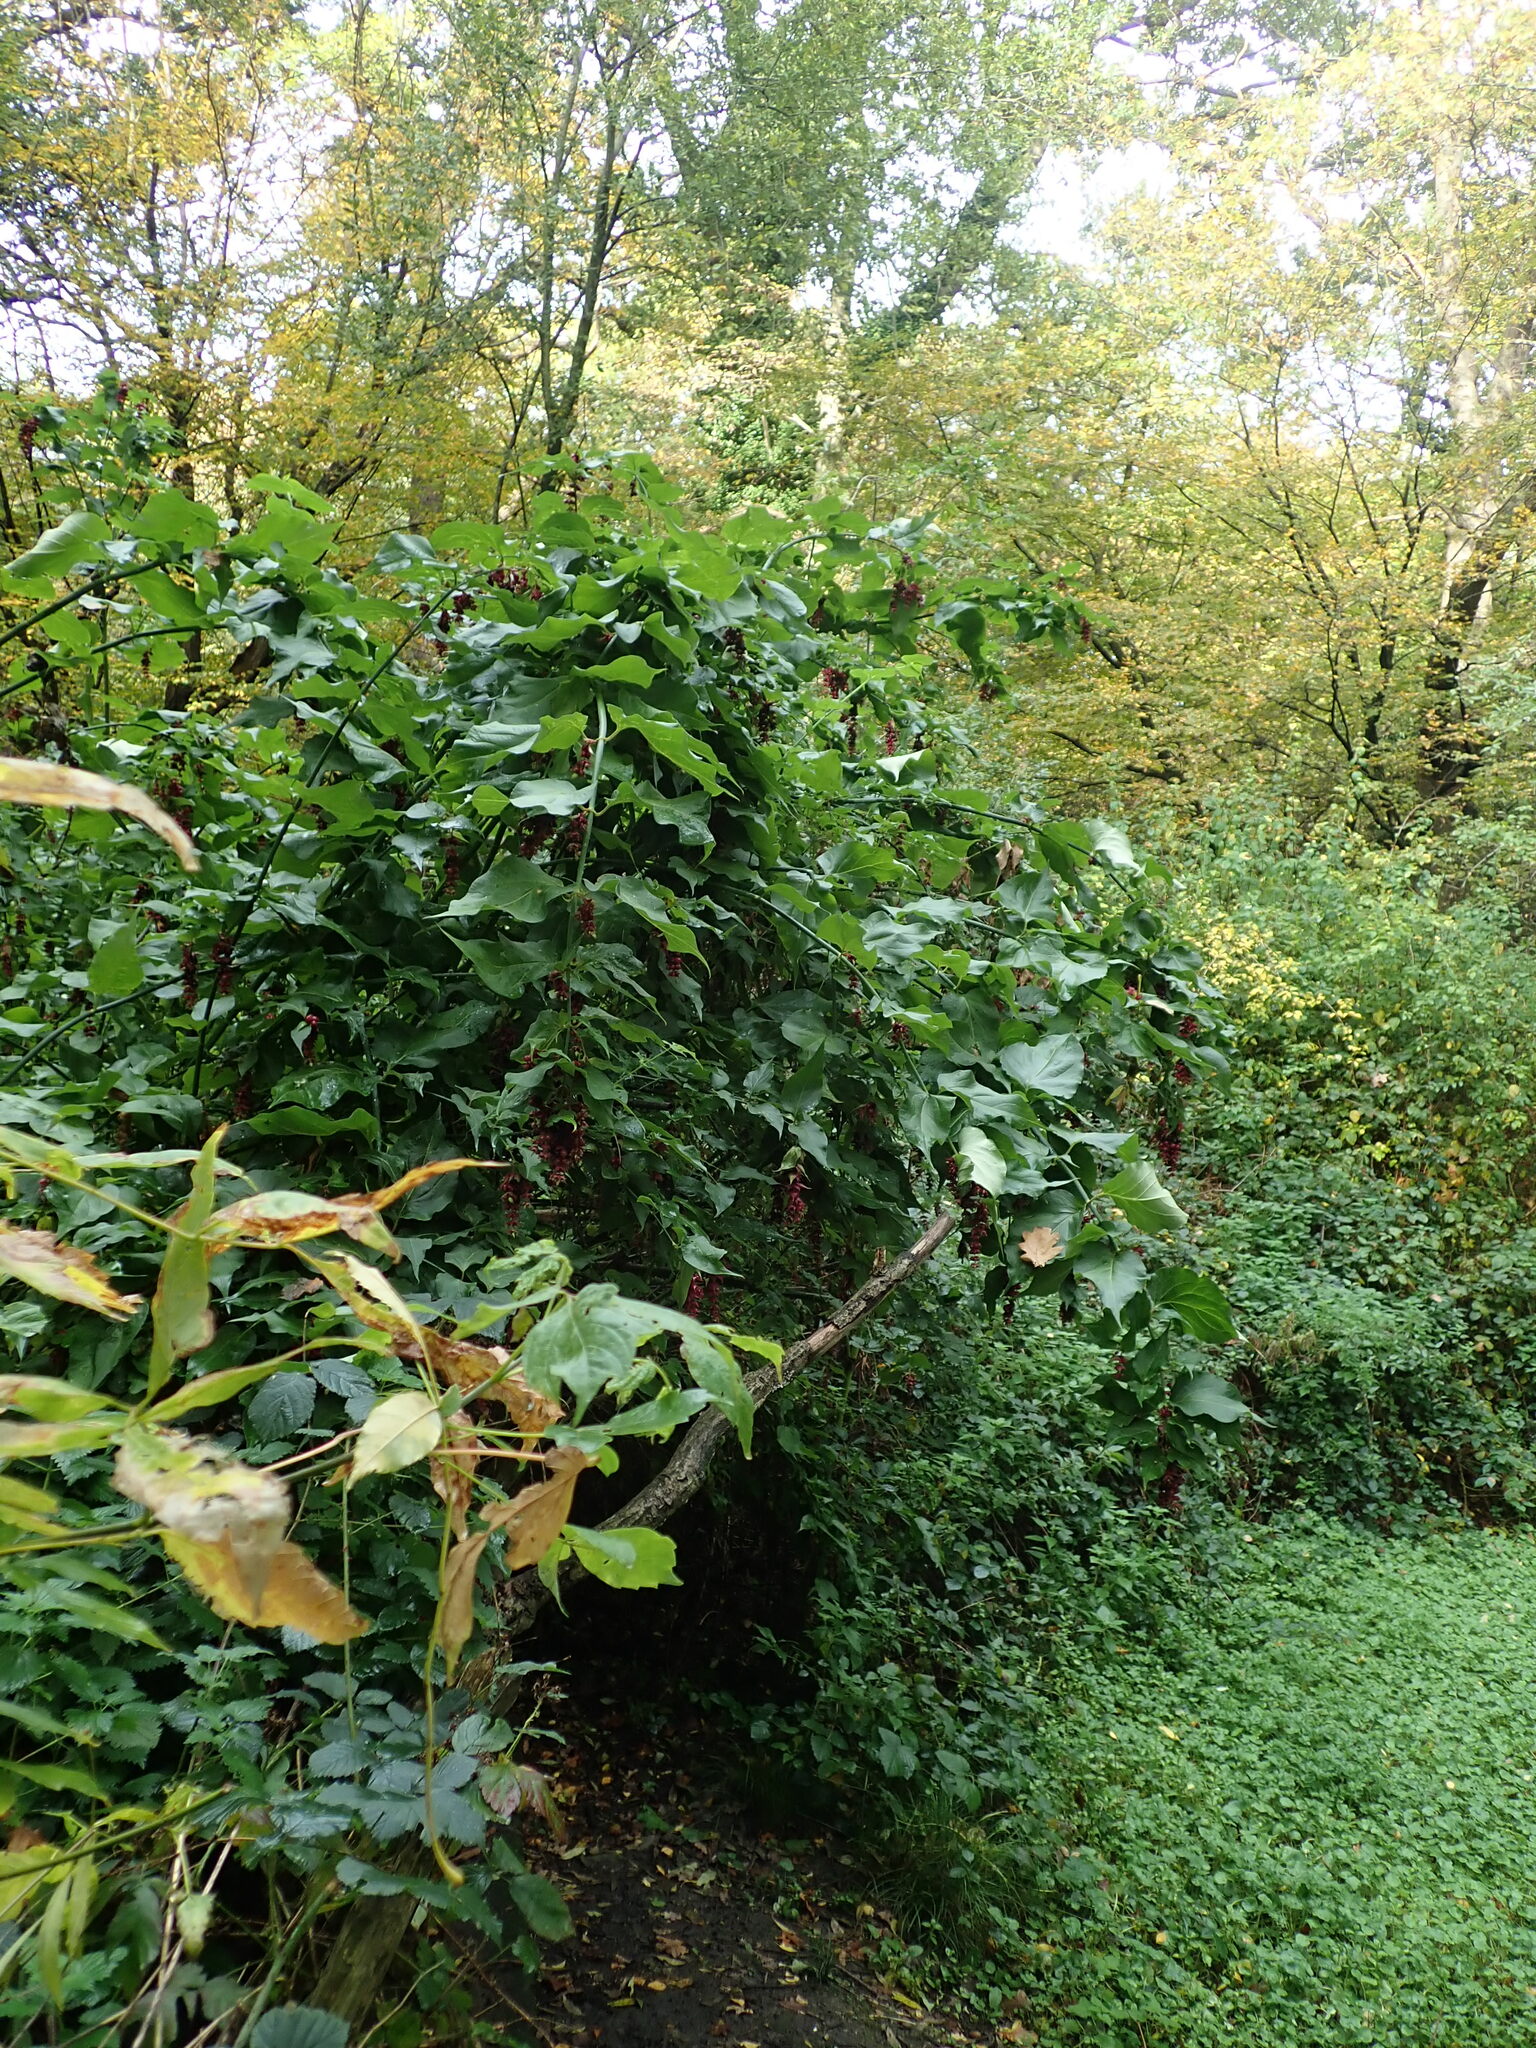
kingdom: Plantae
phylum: Tracheophyta
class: Magnoliopsida
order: Dipsacales
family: Caprifoliaceae
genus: Leycesteria
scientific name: Leycesteria formosa
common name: Himalayan honeysuckle
